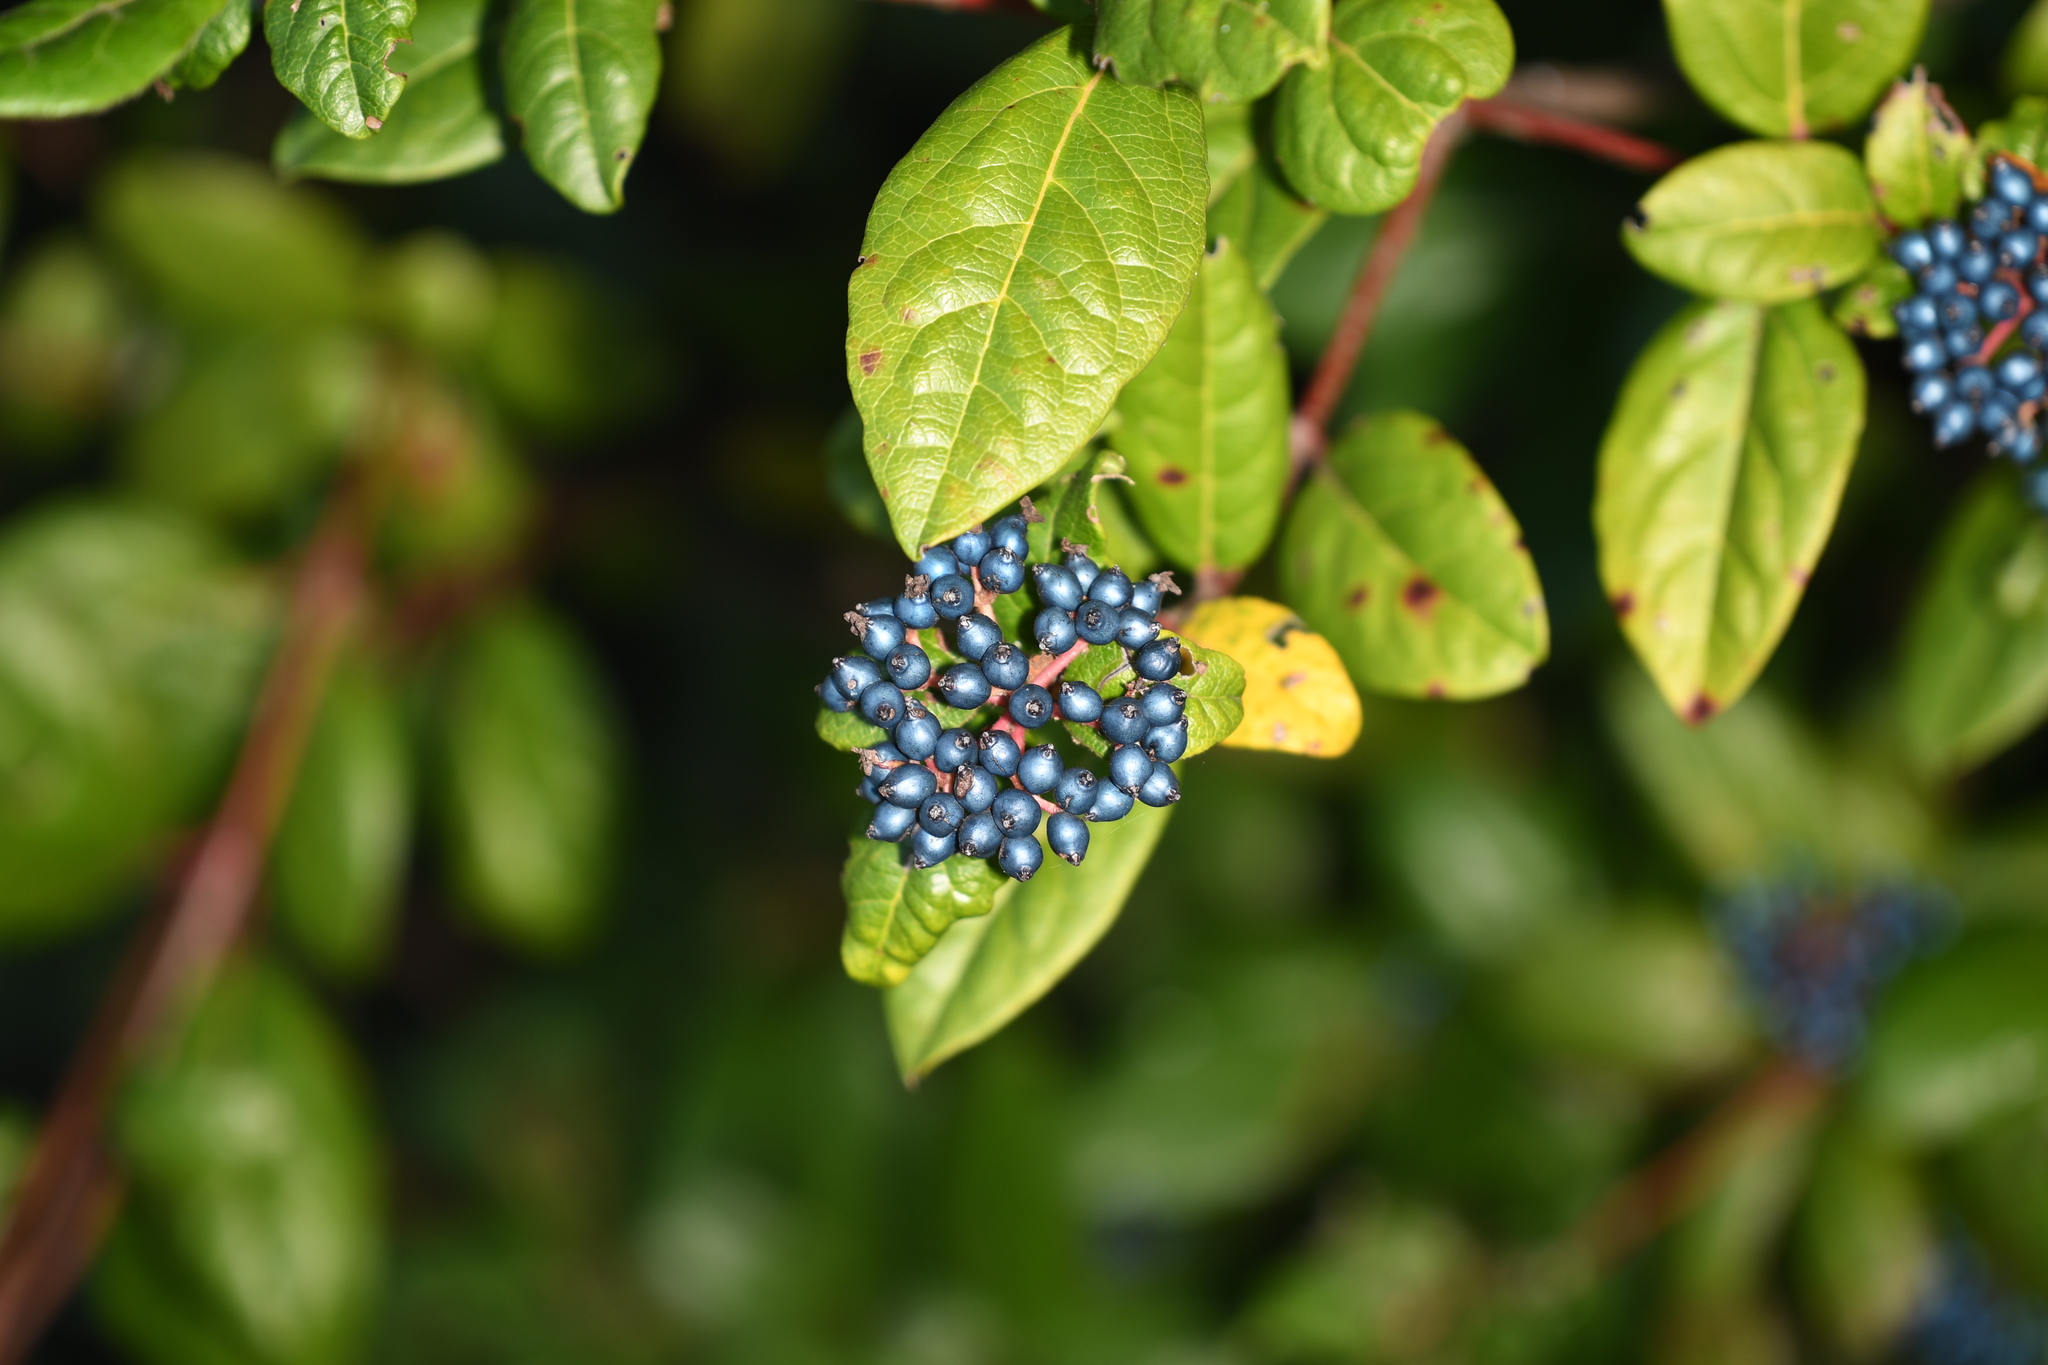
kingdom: Plantae
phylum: Tracheophyta
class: Magnoliopsida
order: Dipsacales
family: Viburnaceae
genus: Viburnum
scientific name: Viburnum tinus
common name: Laurustinus
